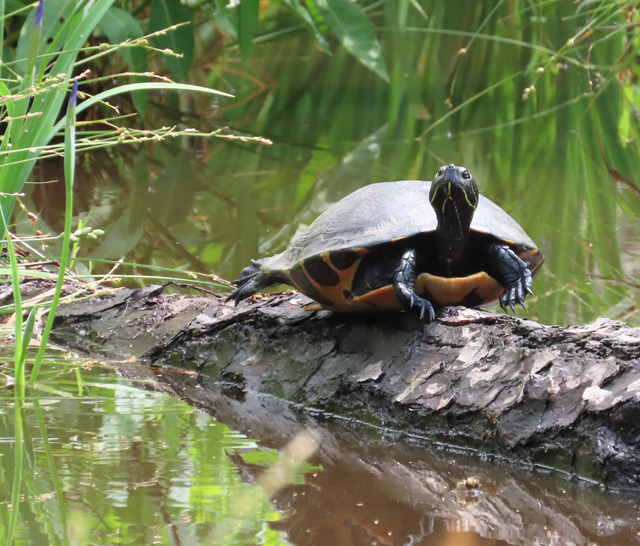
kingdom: Animalia
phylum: Chordata
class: Testudines
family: Emydidae
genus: Pseudemys
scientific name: Pseudemys rubriventris
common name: American red-bellied turtle
